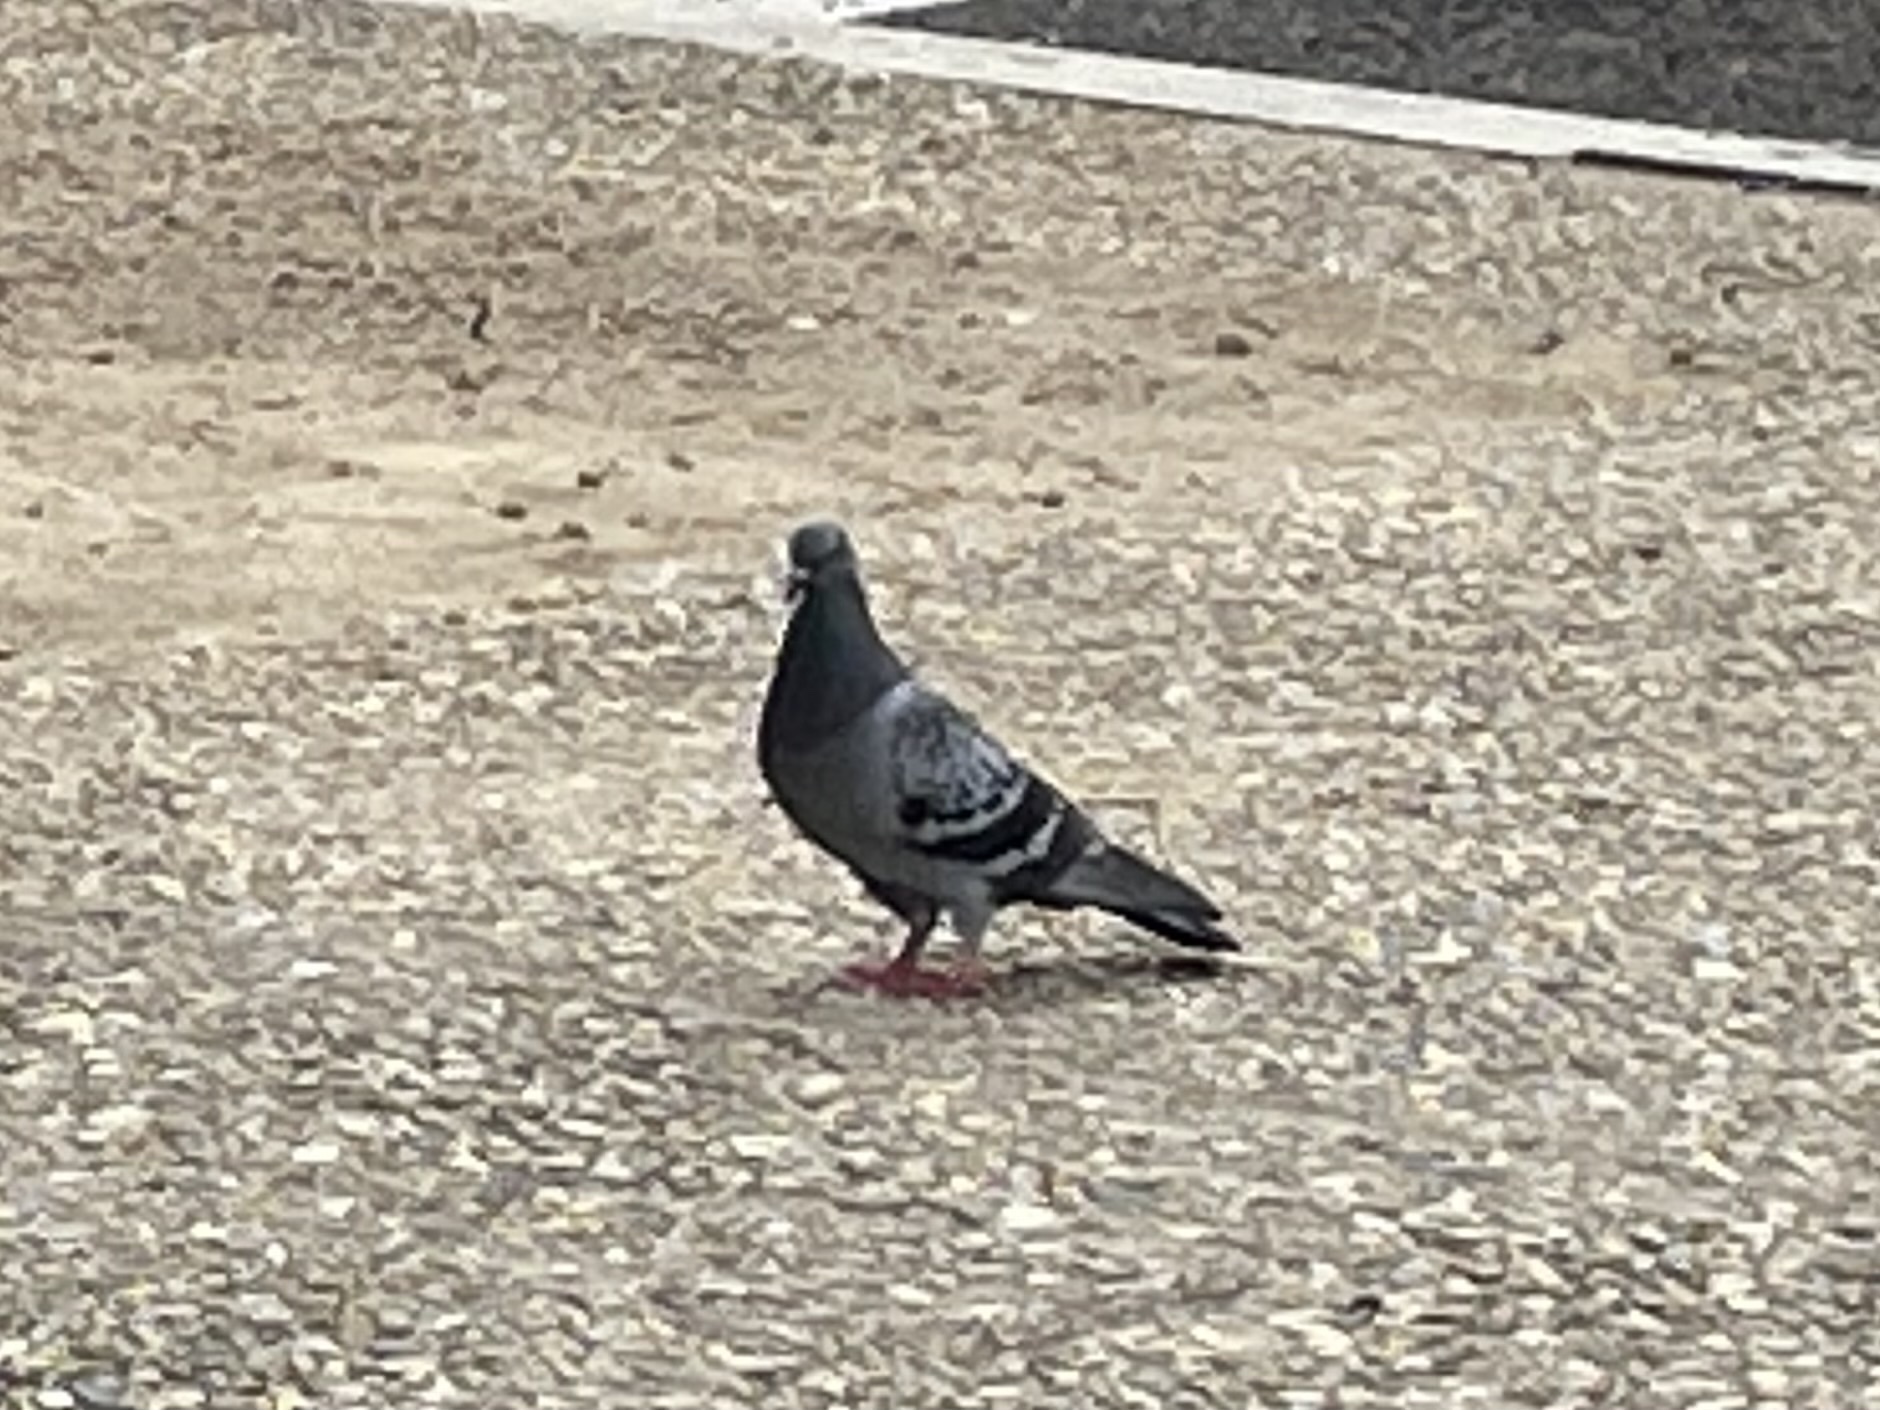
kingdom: Animalia
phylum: Chordata
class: Aves
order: Columbiformes
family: Columbidae
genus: Columba
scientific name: Columba livia
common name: Rock pigeon
